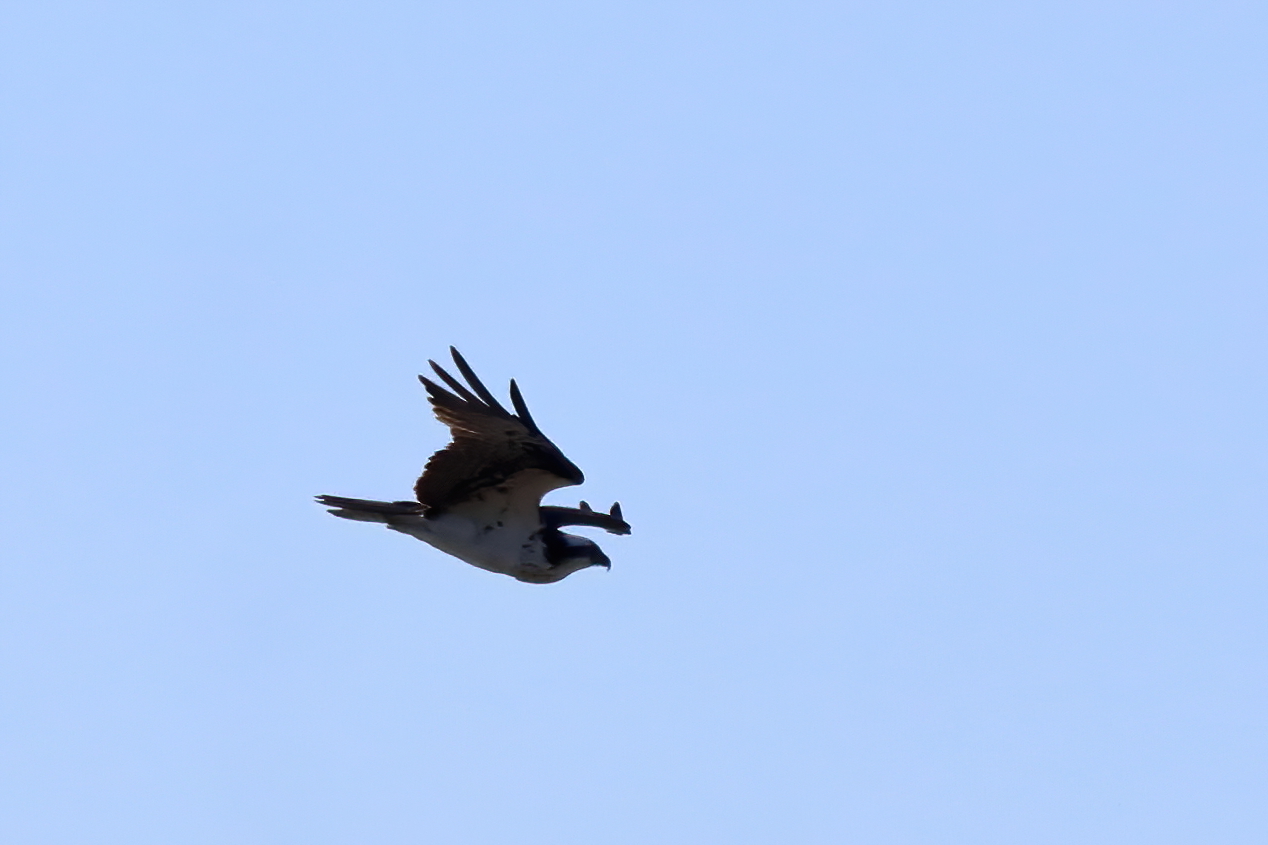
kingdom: Animalia
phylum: Chordata
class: Aves
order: Accipitriformes
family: Pandionidae
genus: Pandion
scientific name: Pandion haliaetus
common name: Osprey
